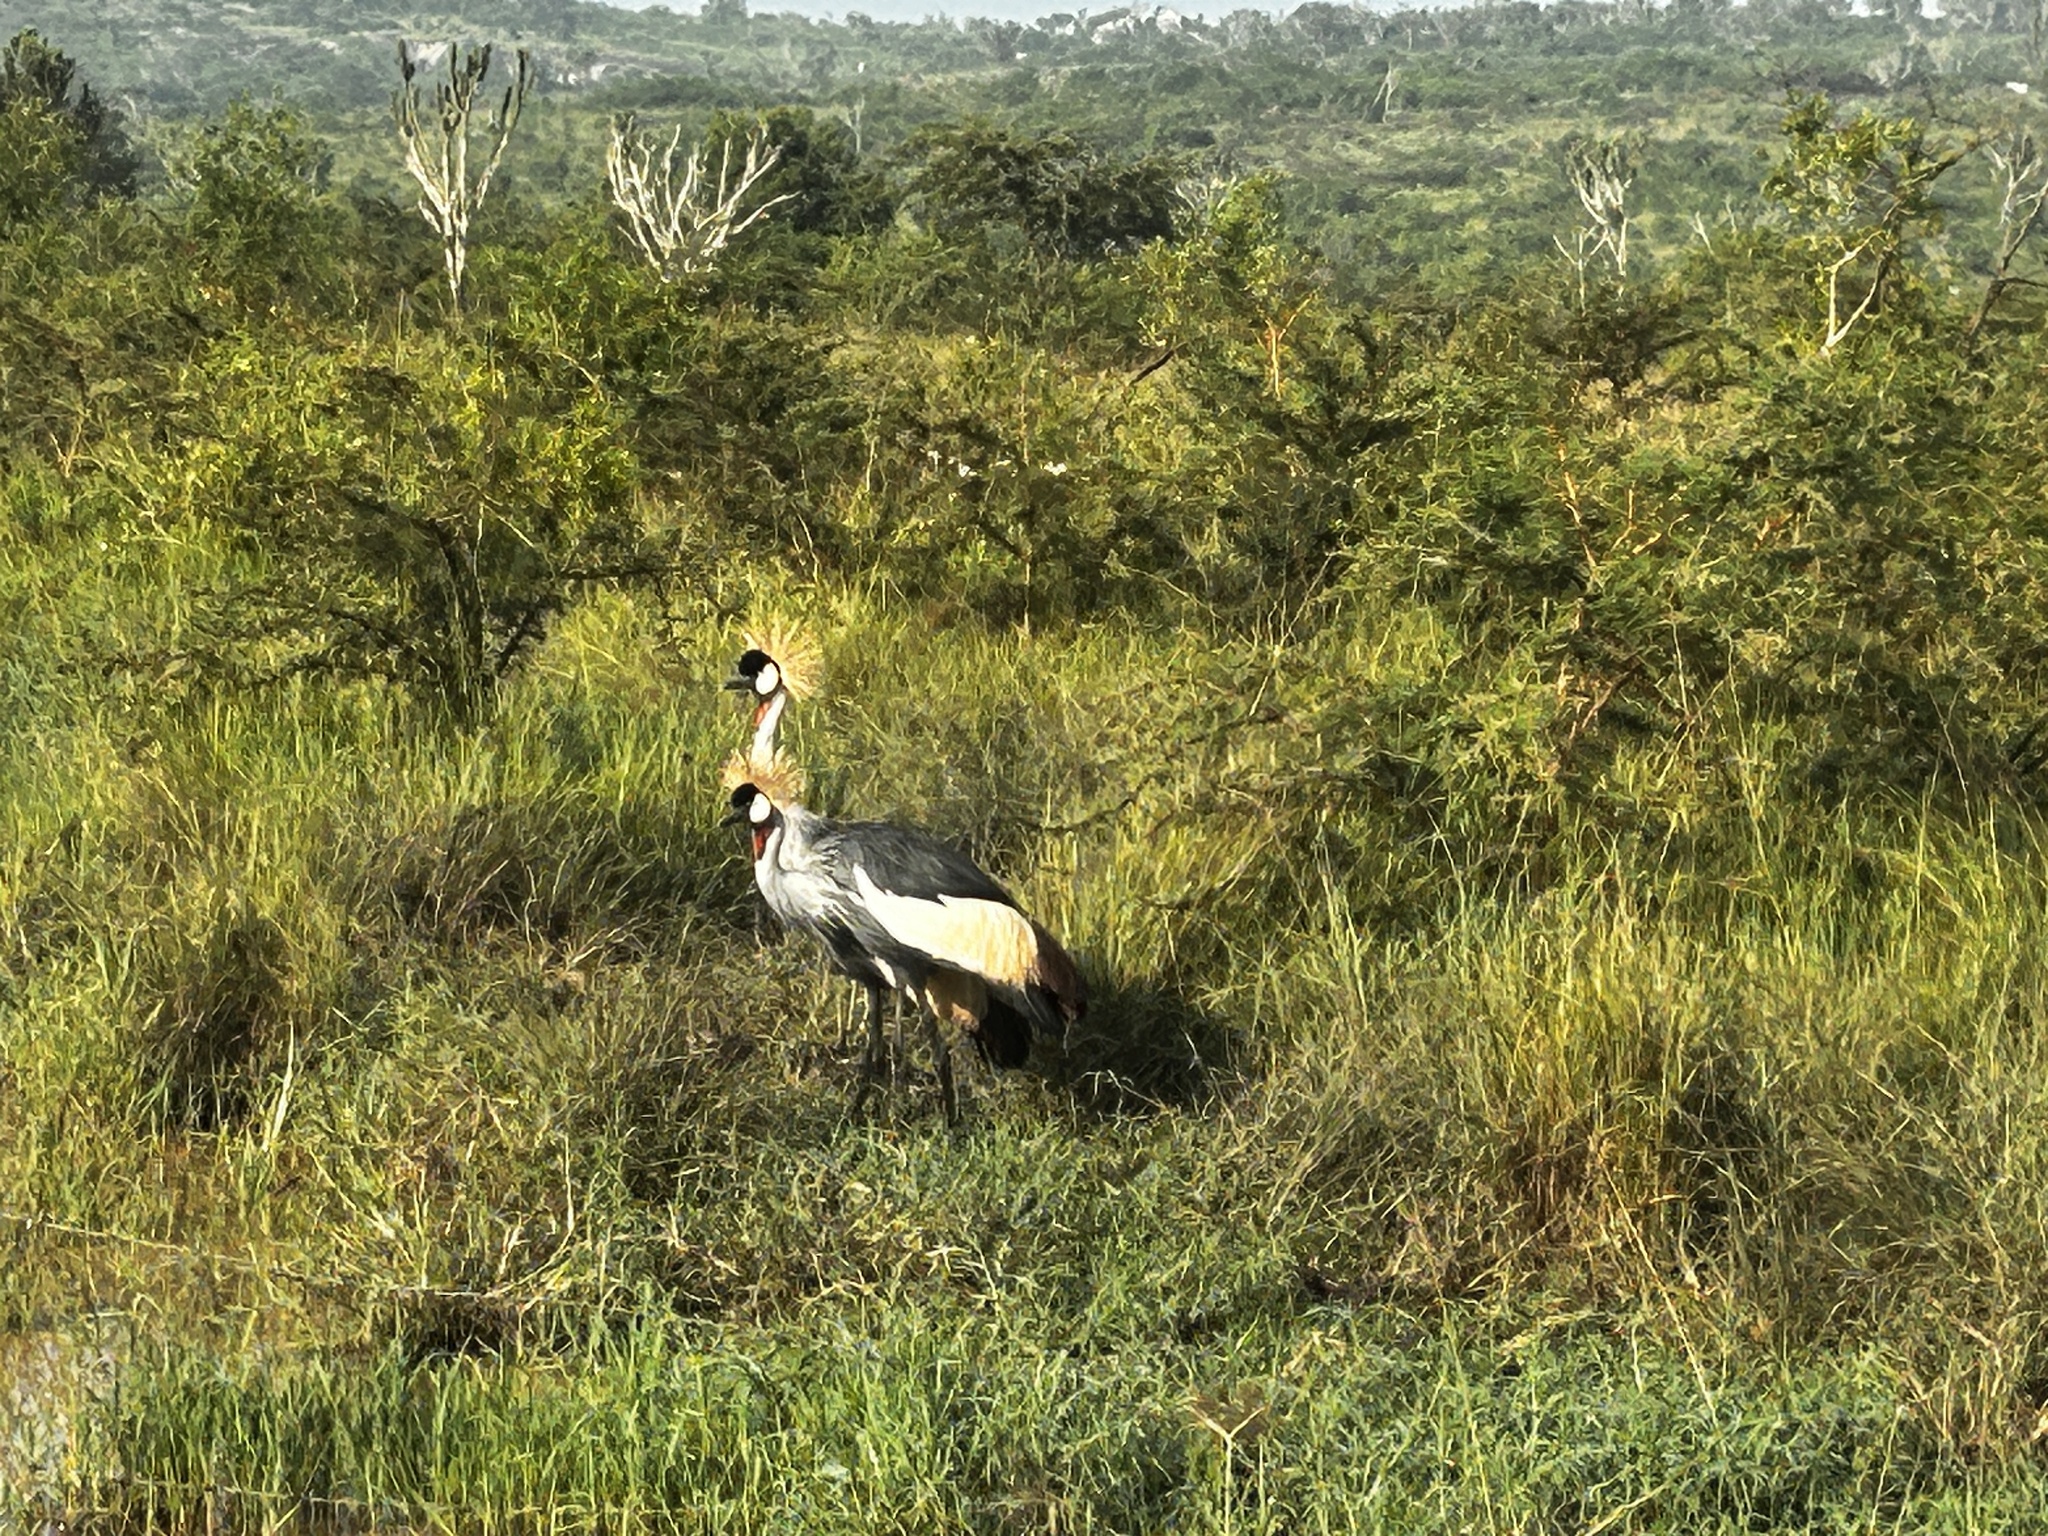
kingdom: Animalia
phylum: Chordata
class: Aves
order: Gruiformes
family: Gruidae
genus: Balearica
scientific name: Balearica regulorum
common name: Grey crowned crane
